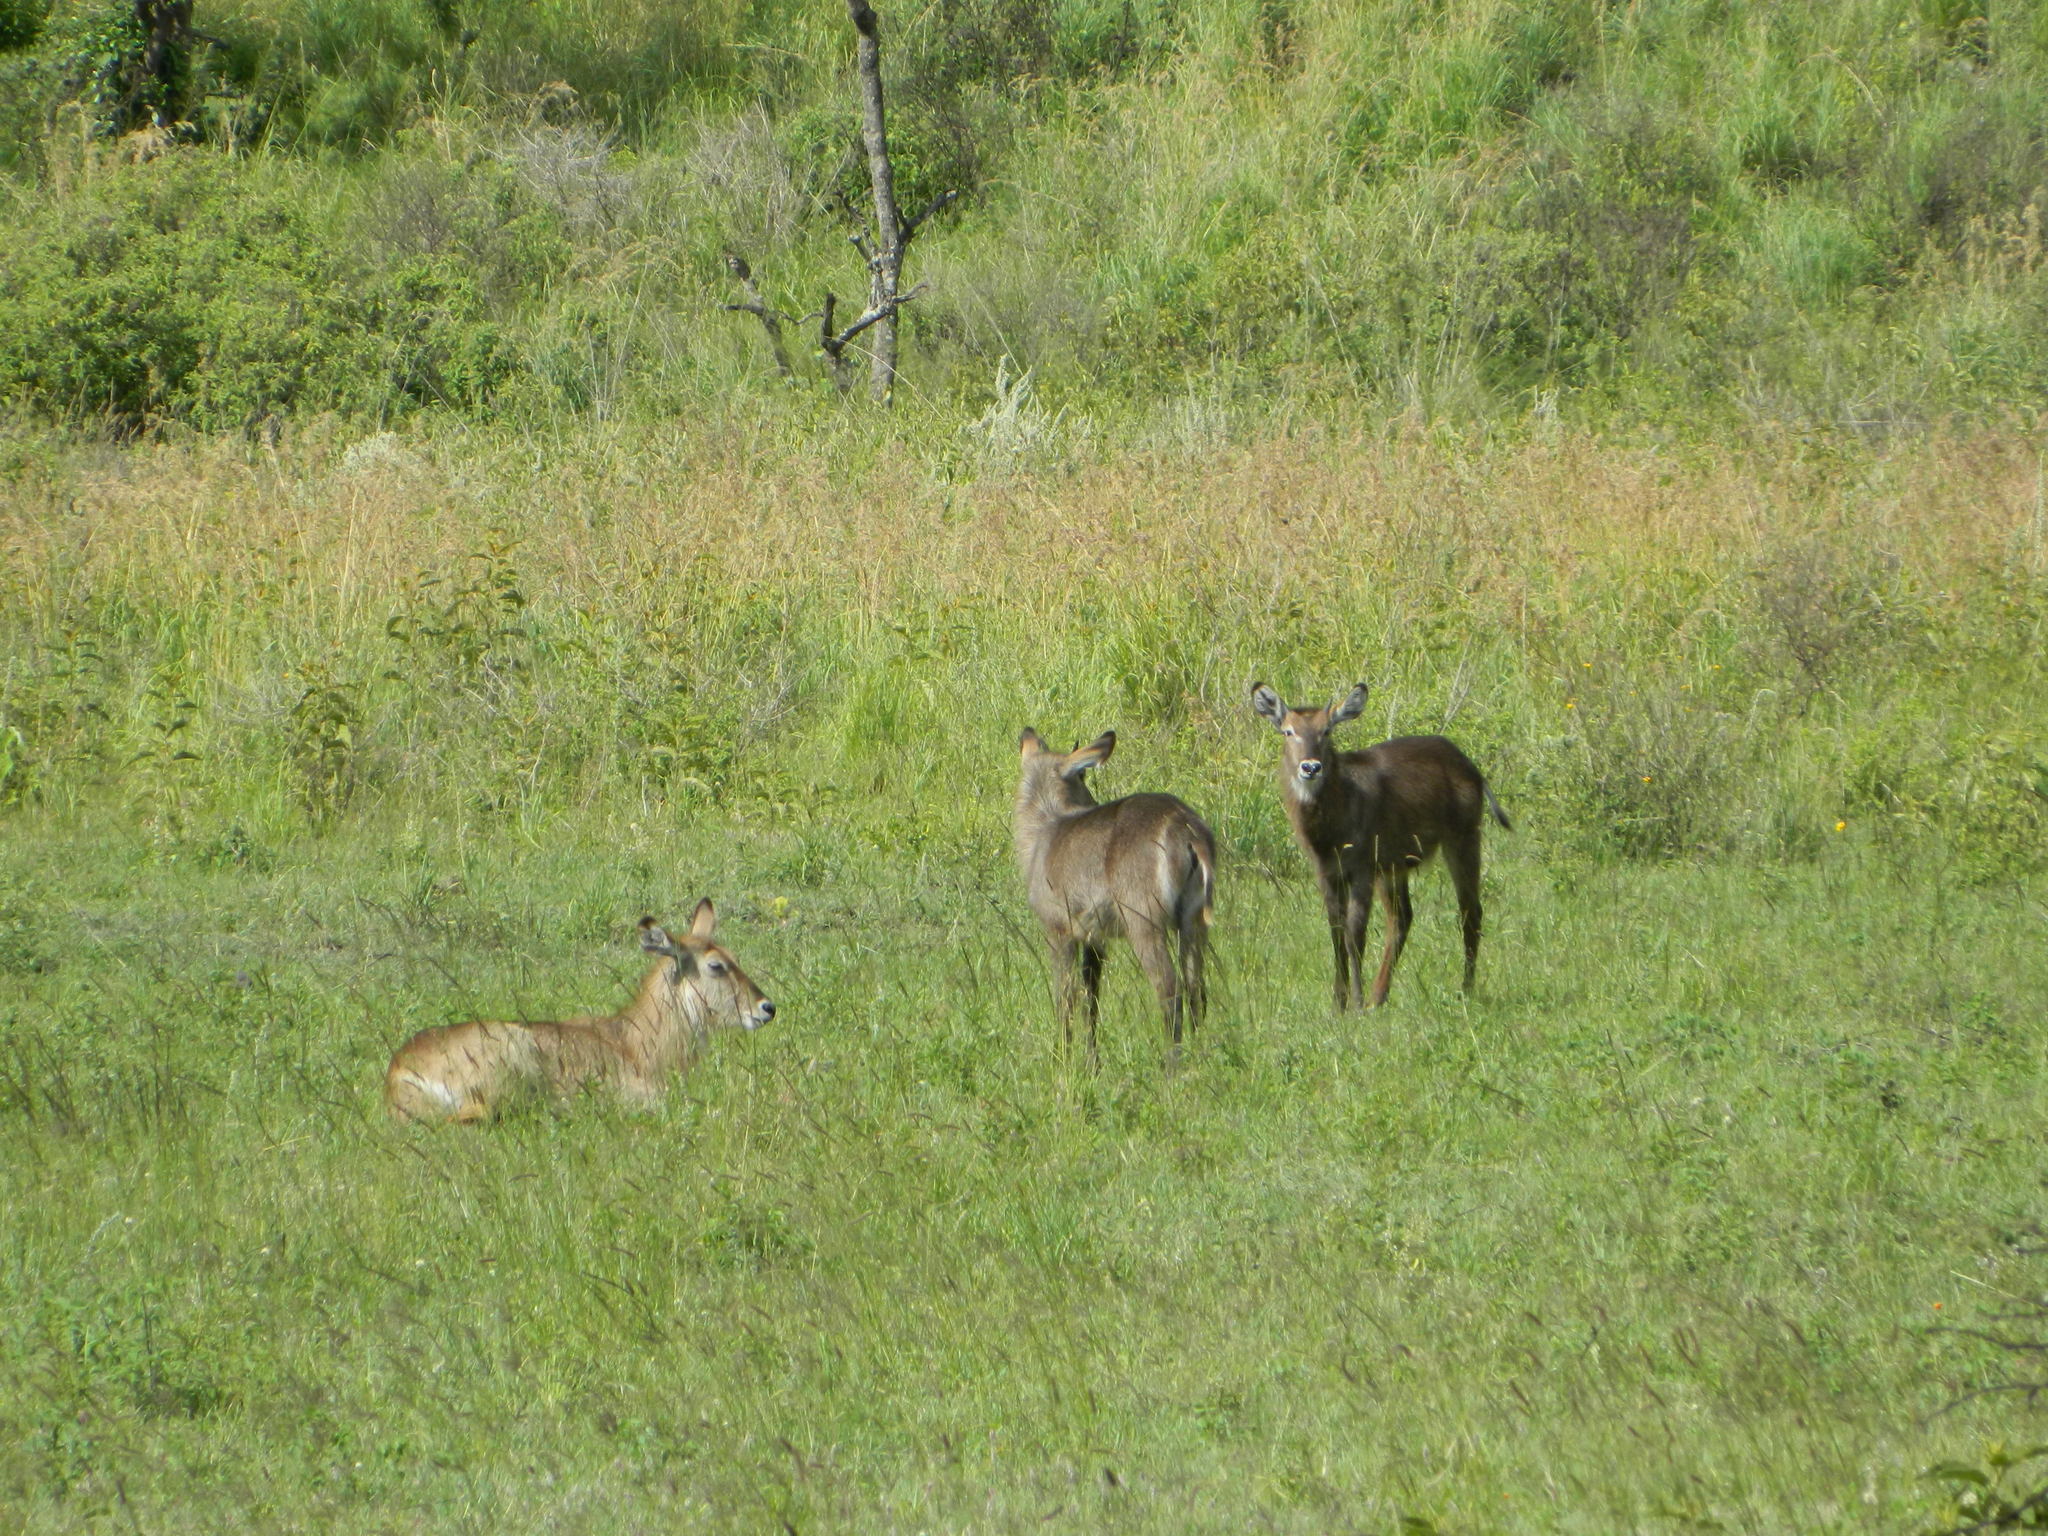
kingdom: Animalia
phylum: Chordata
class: Mammalia
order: Artiodactyla
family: Bovidae
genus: Kobus
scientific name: Kobus ellipsiprymnus
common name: Waterbuck
